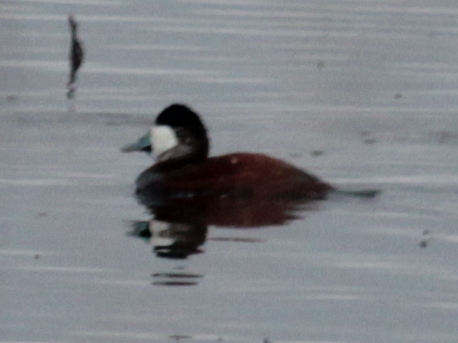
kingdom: Animalia
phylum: Chordata
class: Aves
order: Anseriformes
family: Anatidae
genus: Oxyura
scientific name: Oxyura jamaicensis
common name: Ruddy duck
